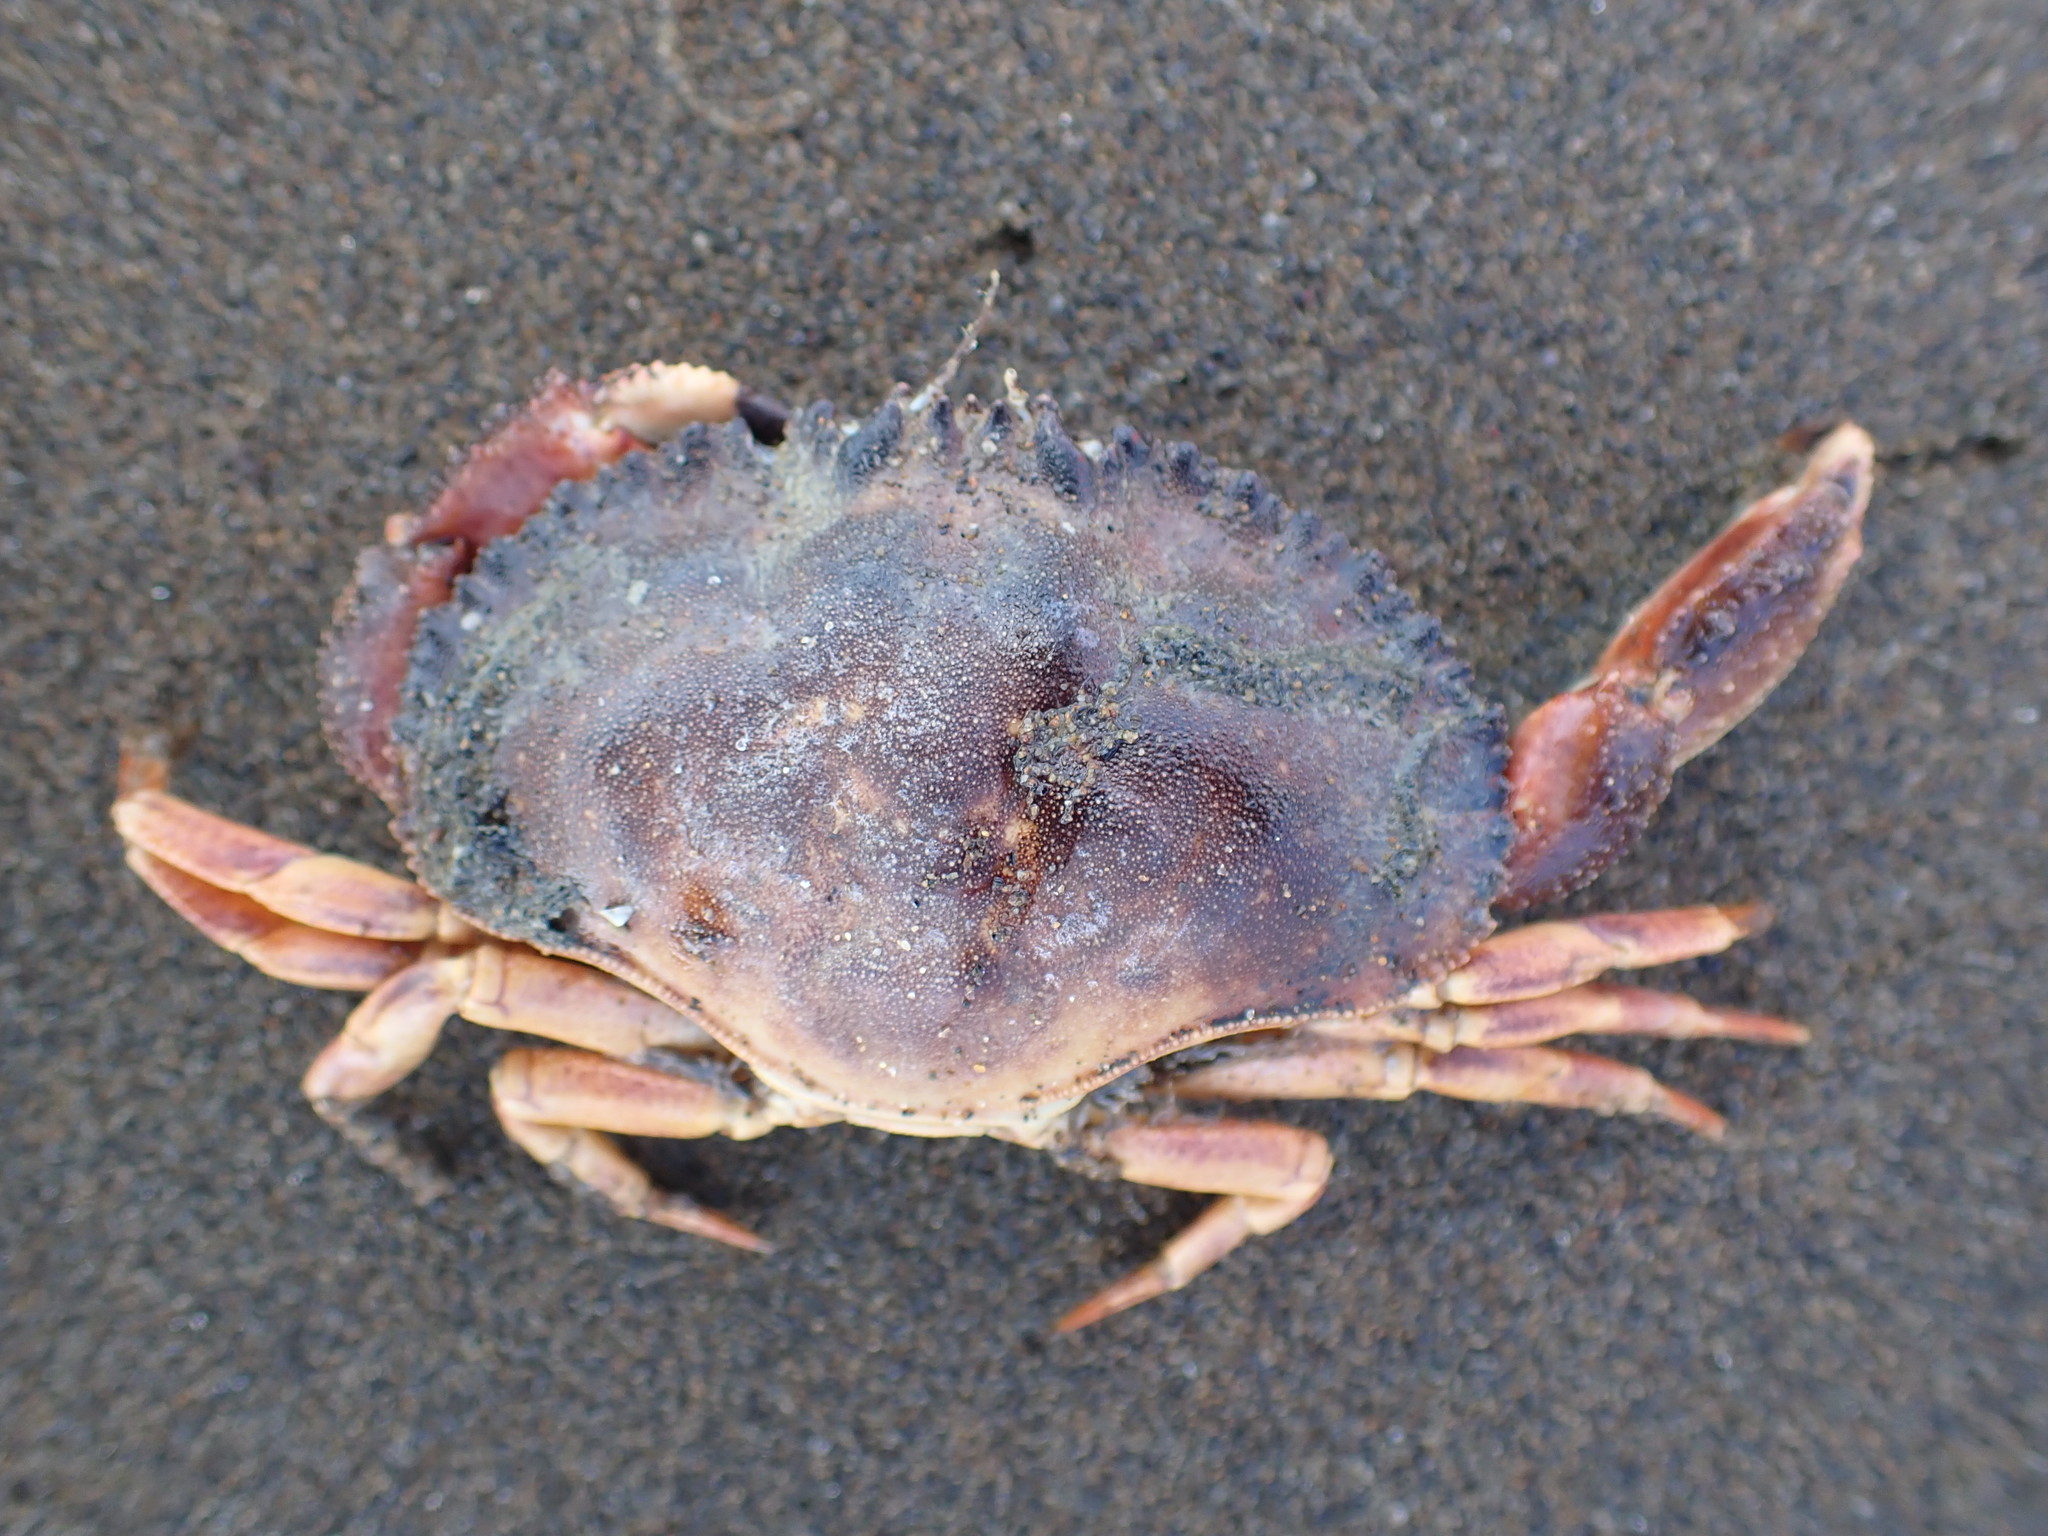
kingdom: Animalia
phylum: Arthropoda
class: Malacostraca
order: Decapoda
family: Cancridae
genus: Metacarcinus
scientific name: Metacarcinus novaezelandiae
